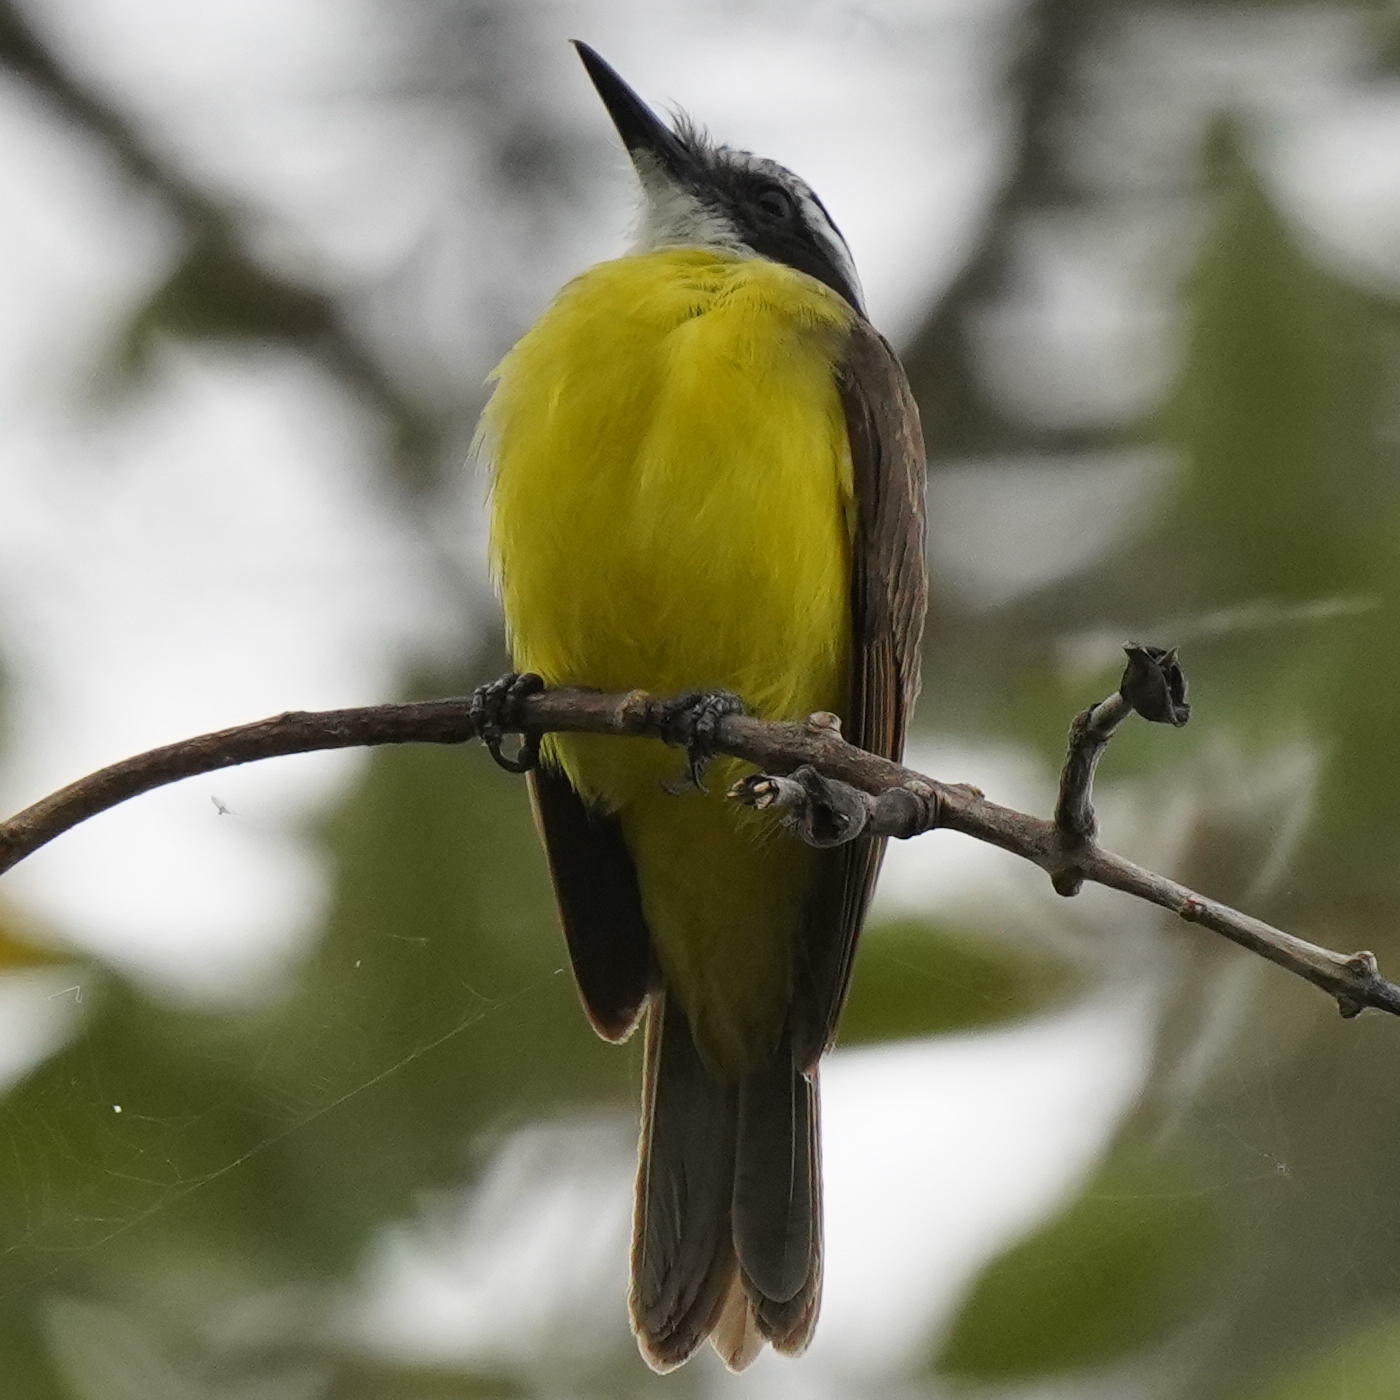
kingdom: Animalia
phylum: Chordata
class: Aves
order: Passeriformes
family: Tyrannidae
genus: Pitangus
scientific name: Pitangus lictor
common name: Lesser kiskadee
